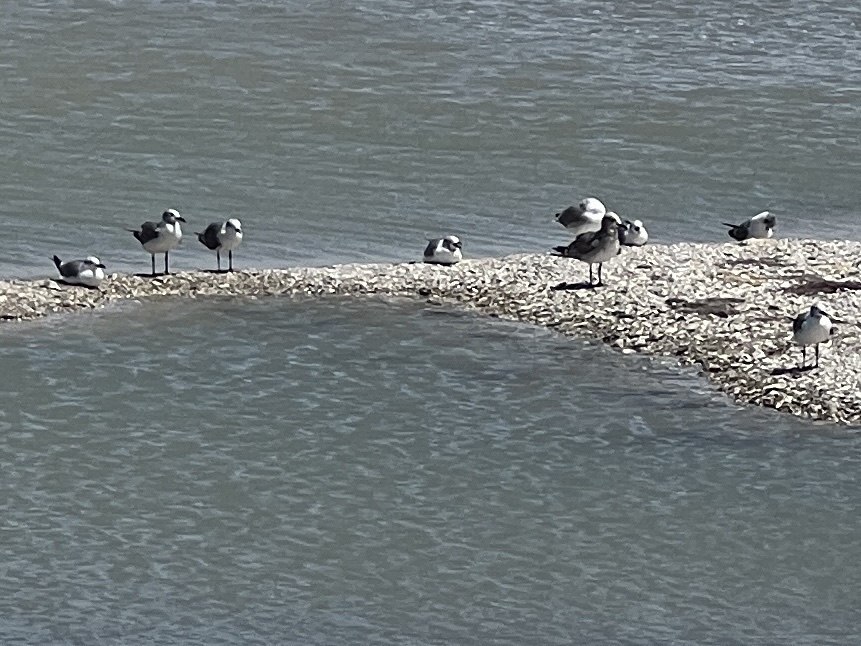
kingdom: Animalia
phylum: Chordata
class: Aves
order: Charadriiformes
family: Laridae
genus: Leucophaeus
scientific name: Leucophaeus atricilla
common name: Laughing gull
